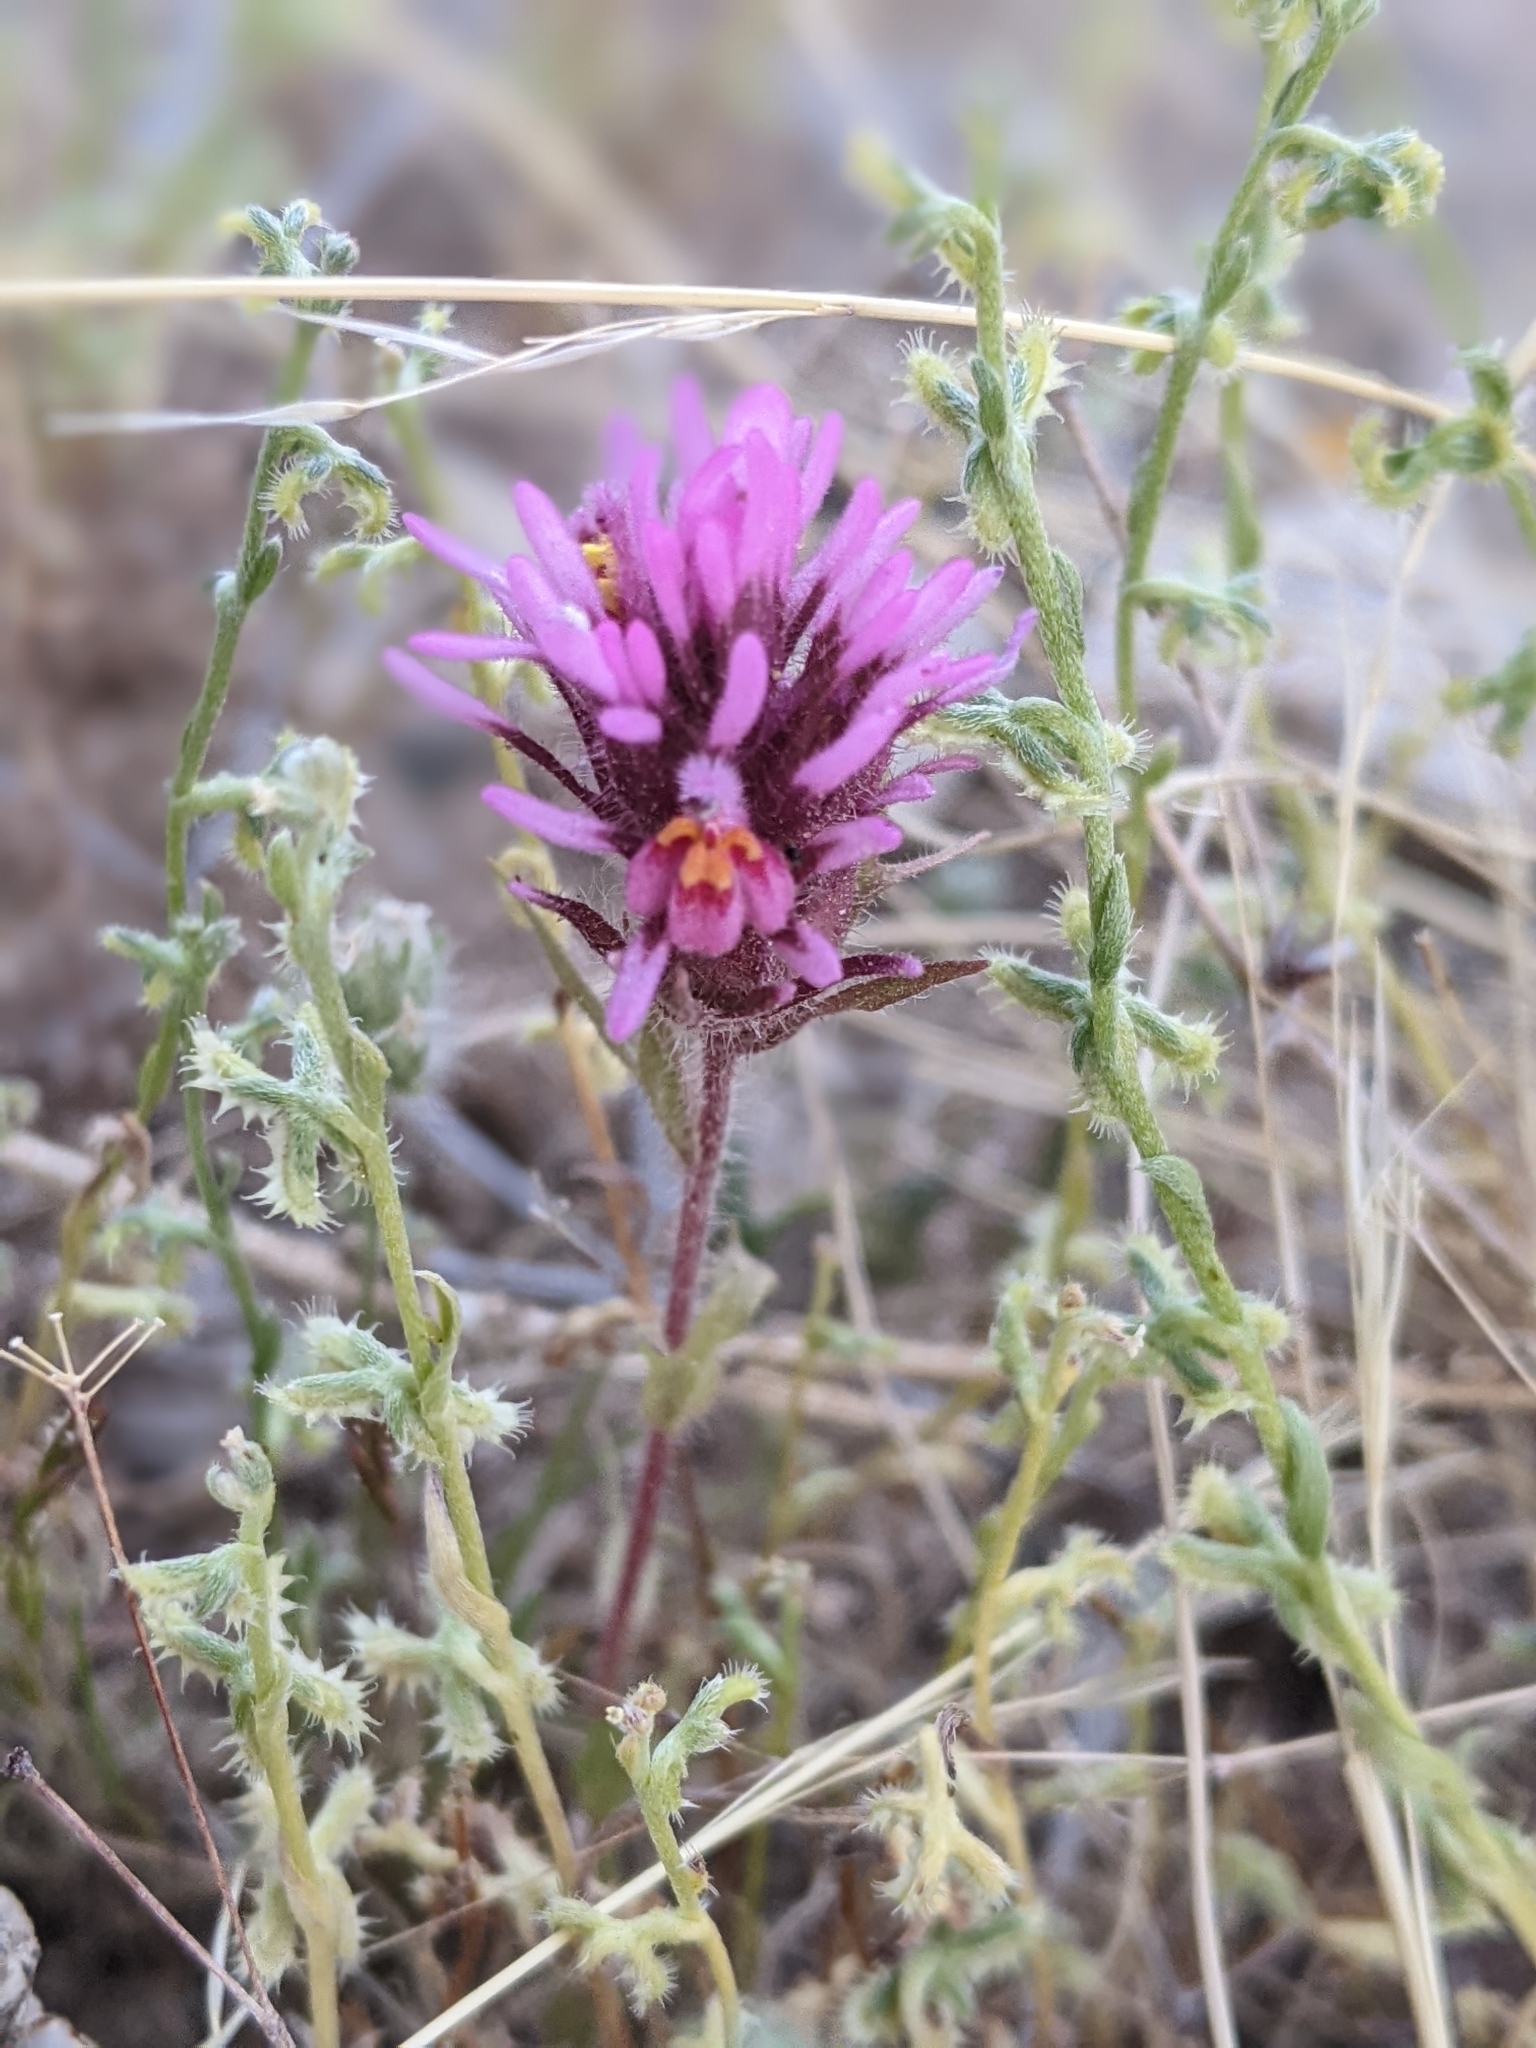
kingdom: Plantae
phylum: Tracheophyta
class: Magnoliopsida
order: Lamiales
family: Orobanchaceae
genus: Castilleja
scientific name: Castilleja exserta
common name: Purple owl-clover
